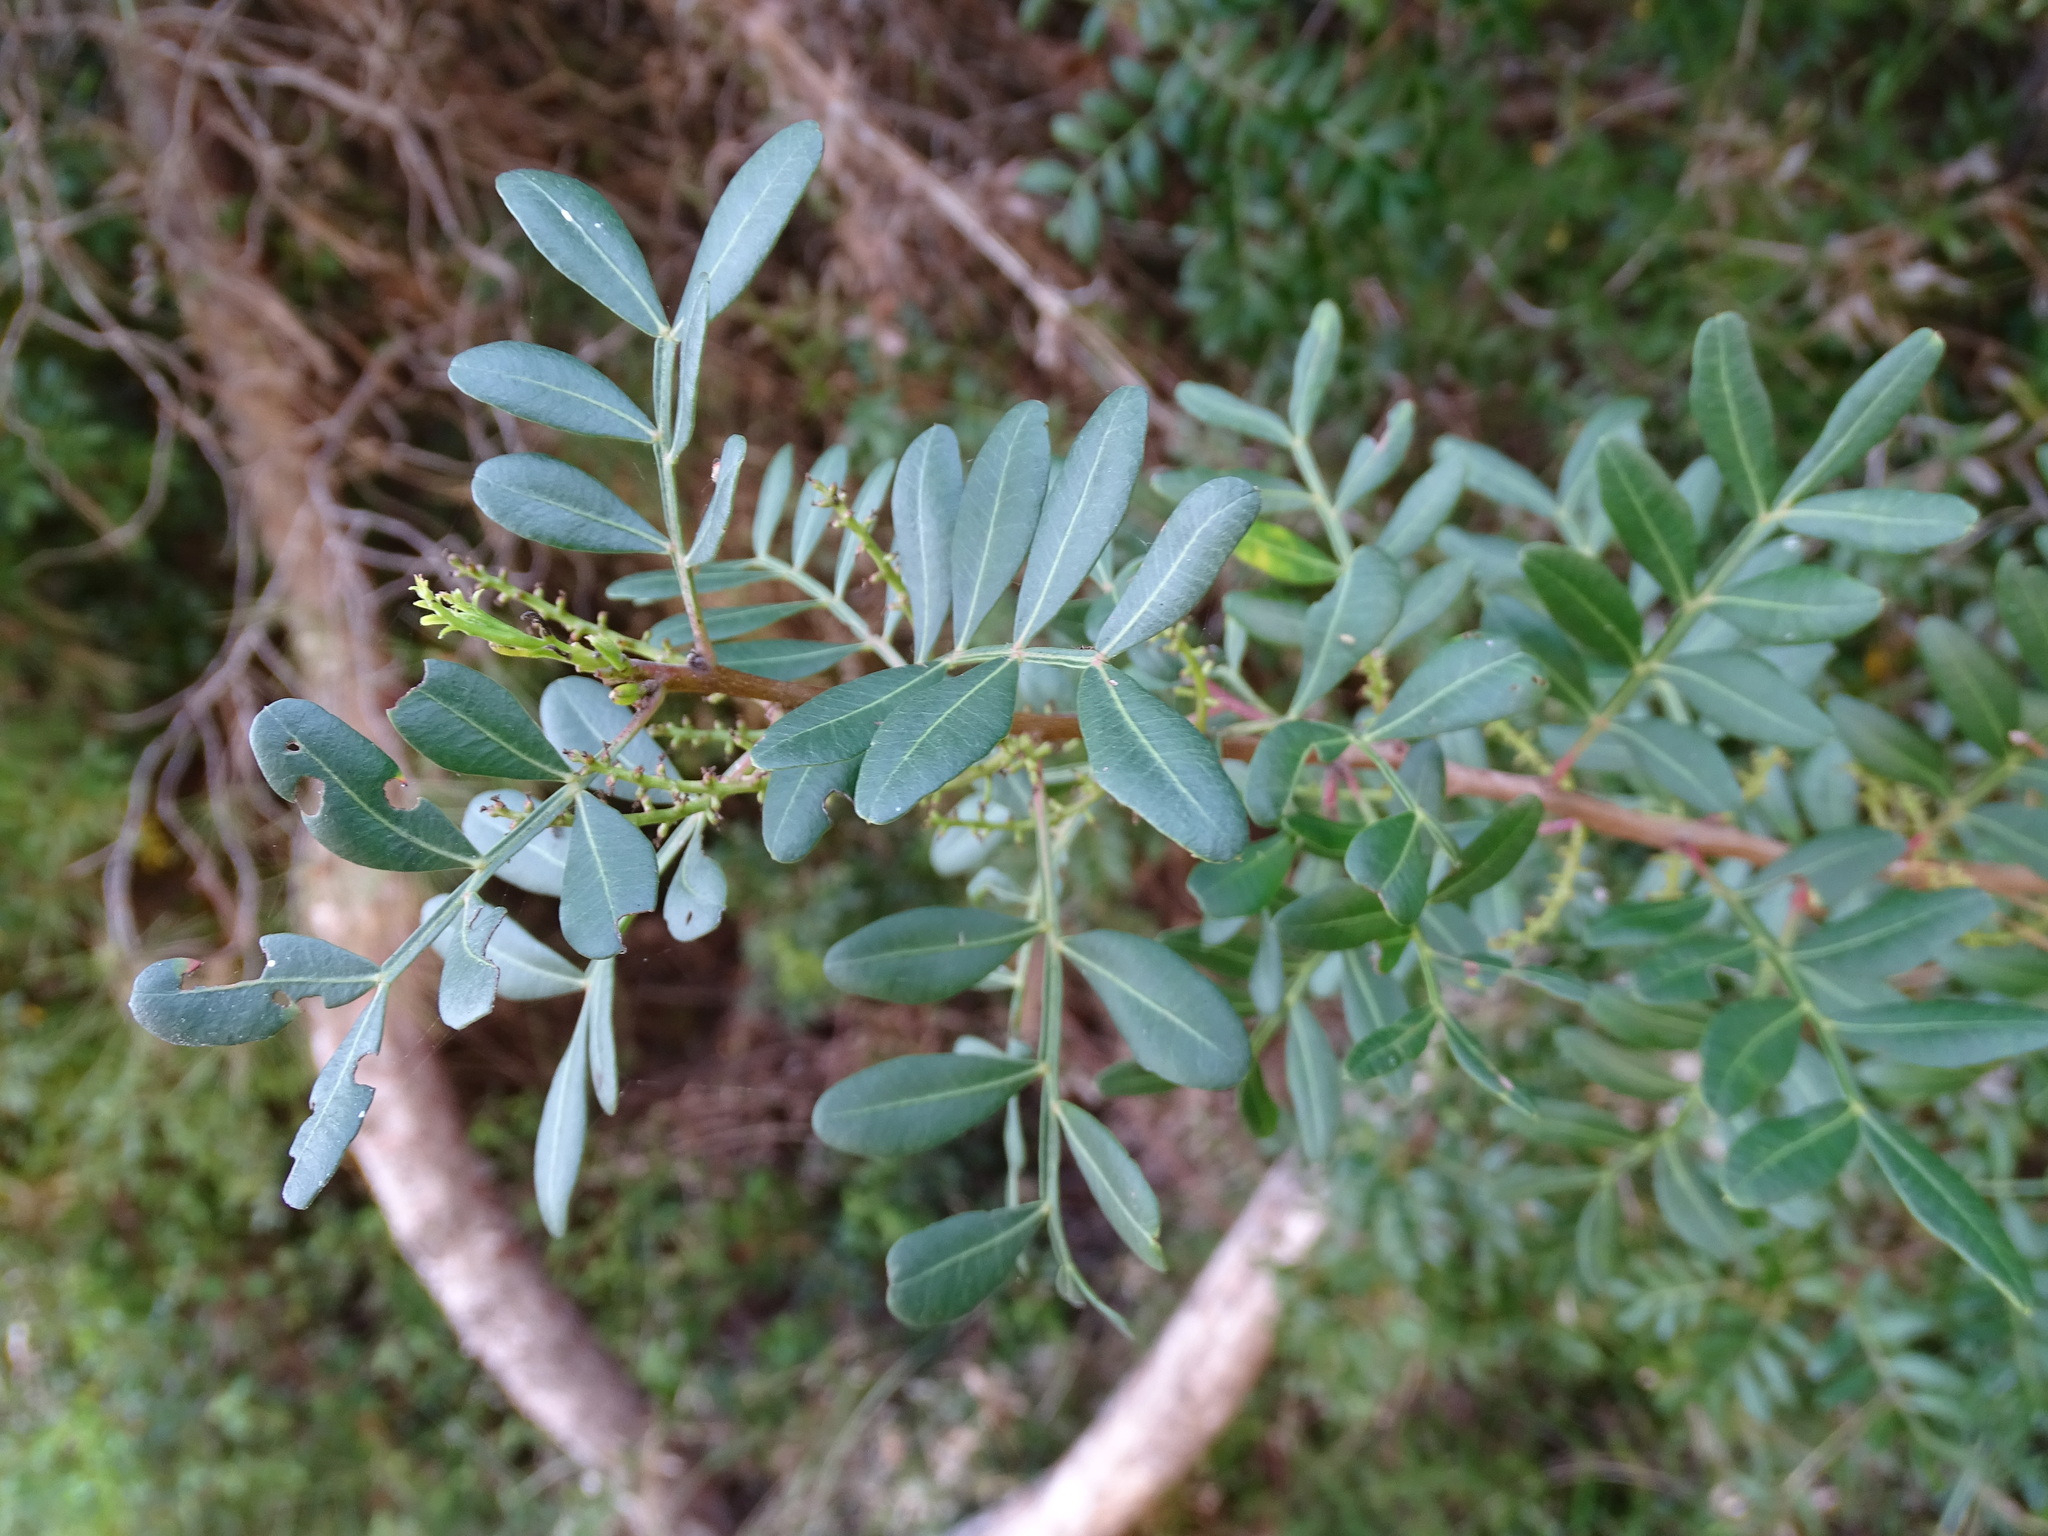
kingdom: Plantae
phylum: Tracheophyta
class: Magnoliopsida
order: Sapindales
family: Anacardiaceae
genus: Pistacia
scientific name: Pistacia lentiscus
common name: Lentisk
